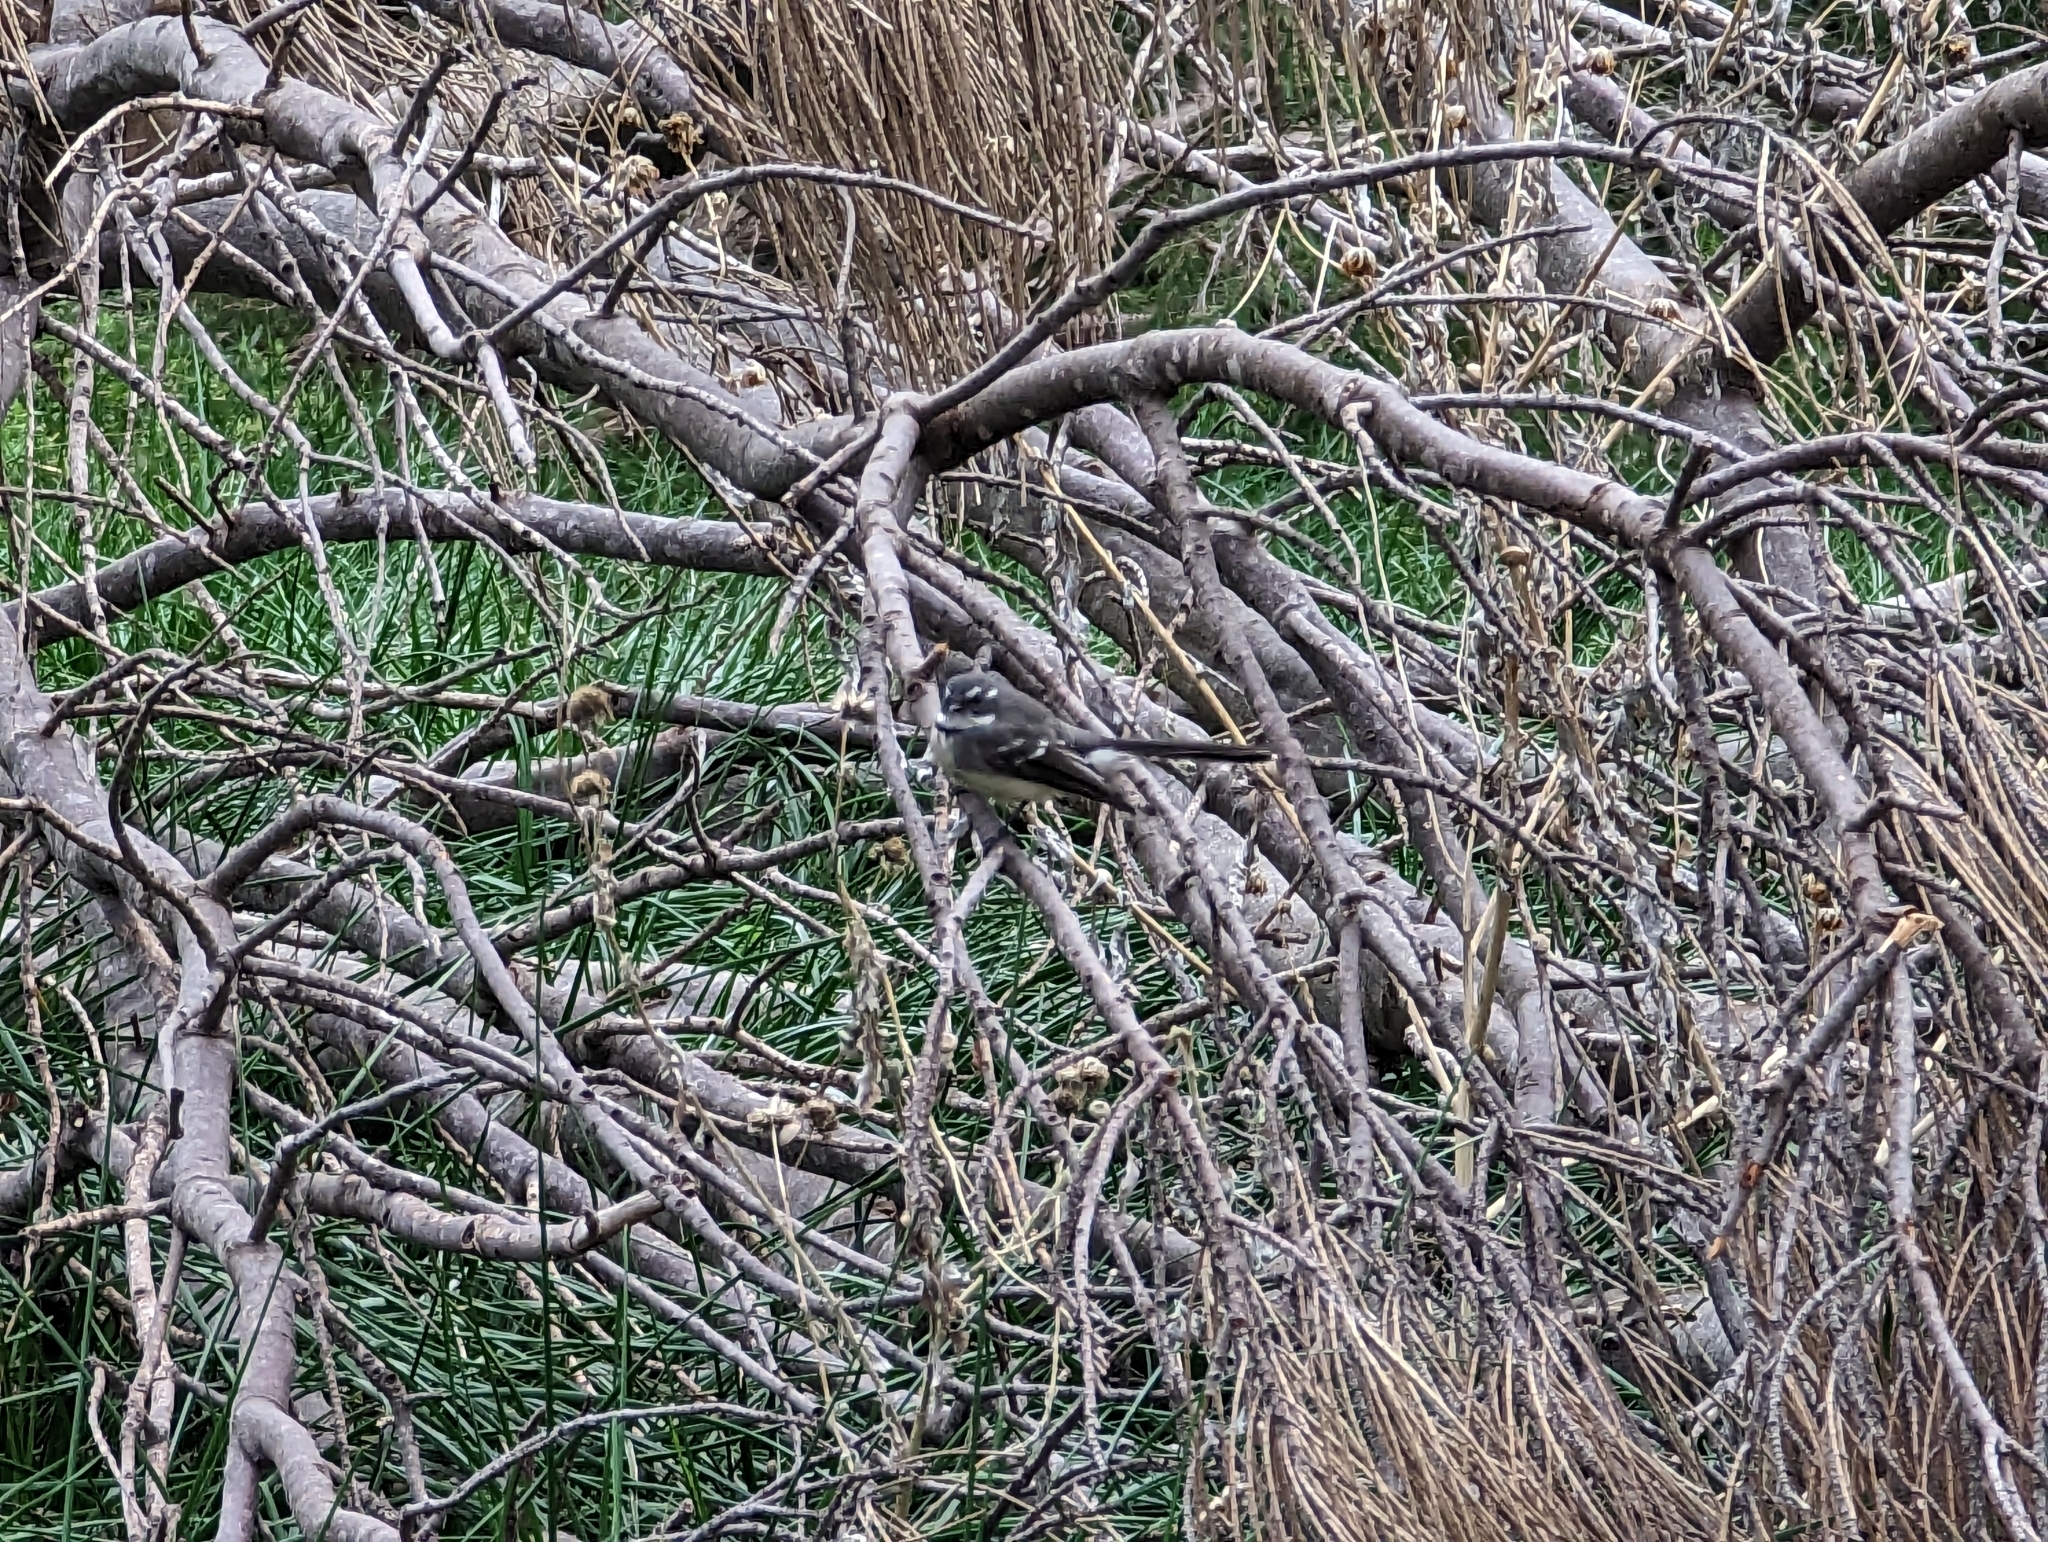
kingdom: Animalia
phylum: Chordata
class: Aves
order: Passeriformes
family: Rhipiduridae
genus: Rhipidura
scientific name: Rhipidura albiscapa
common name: Grey fantail
